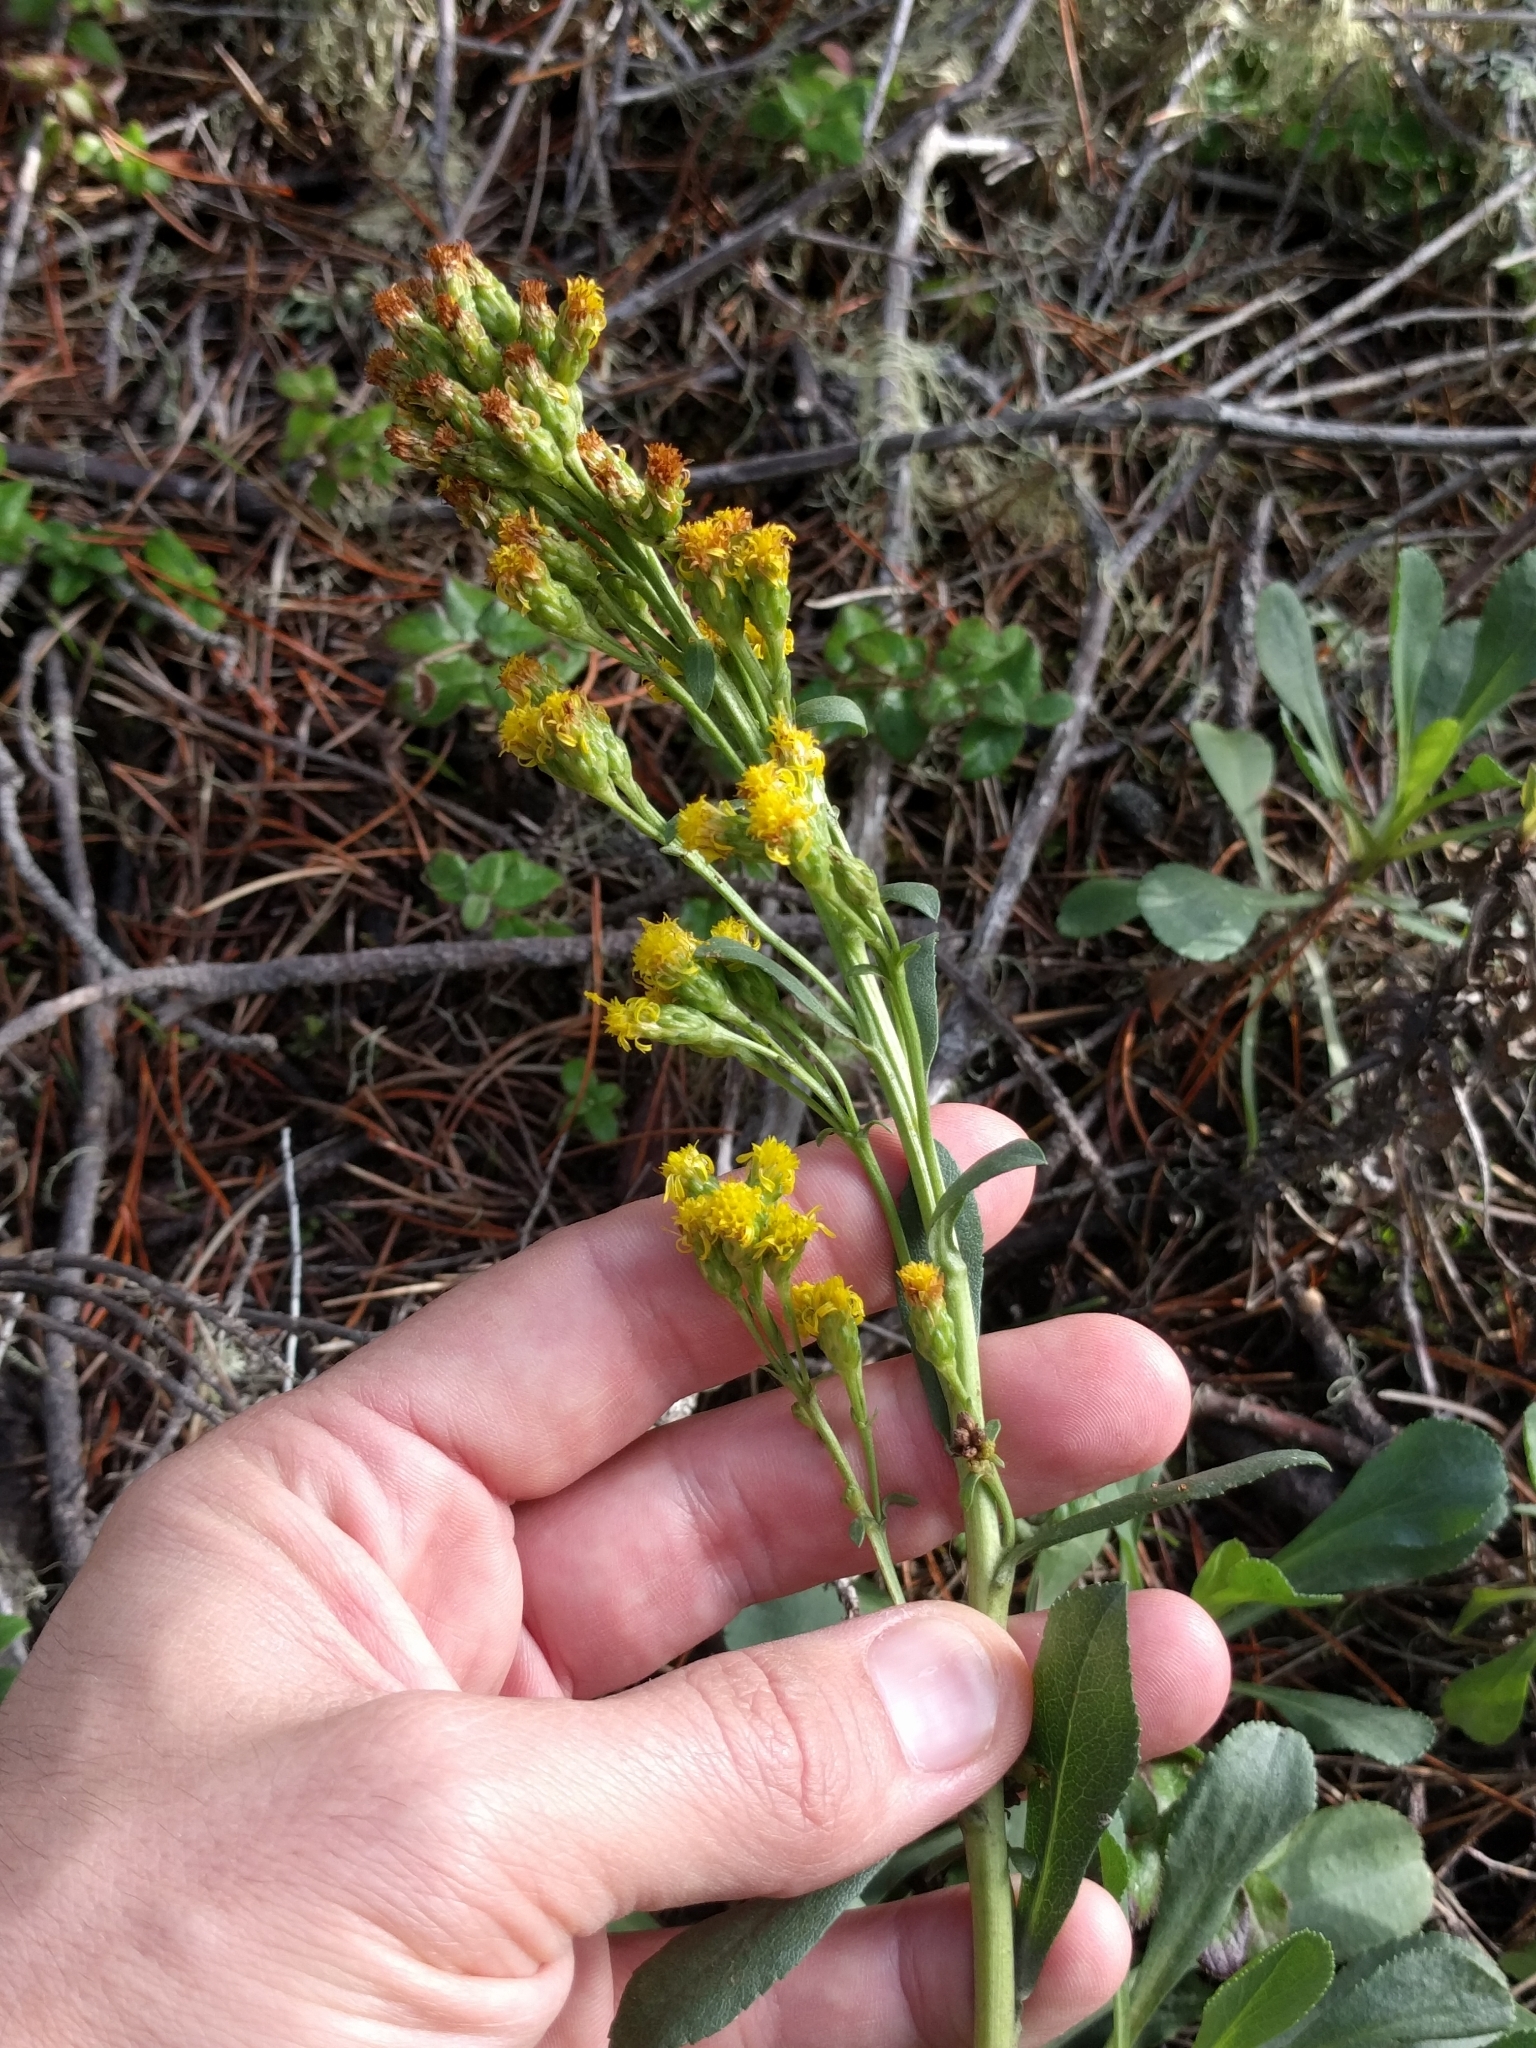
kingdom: Plantae
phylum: Tracheophyta
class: Magnoliopsida
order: Asterales
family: Asteraceae
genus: Solidago
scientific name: Solidago spathulata
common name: Coast goldenrod
